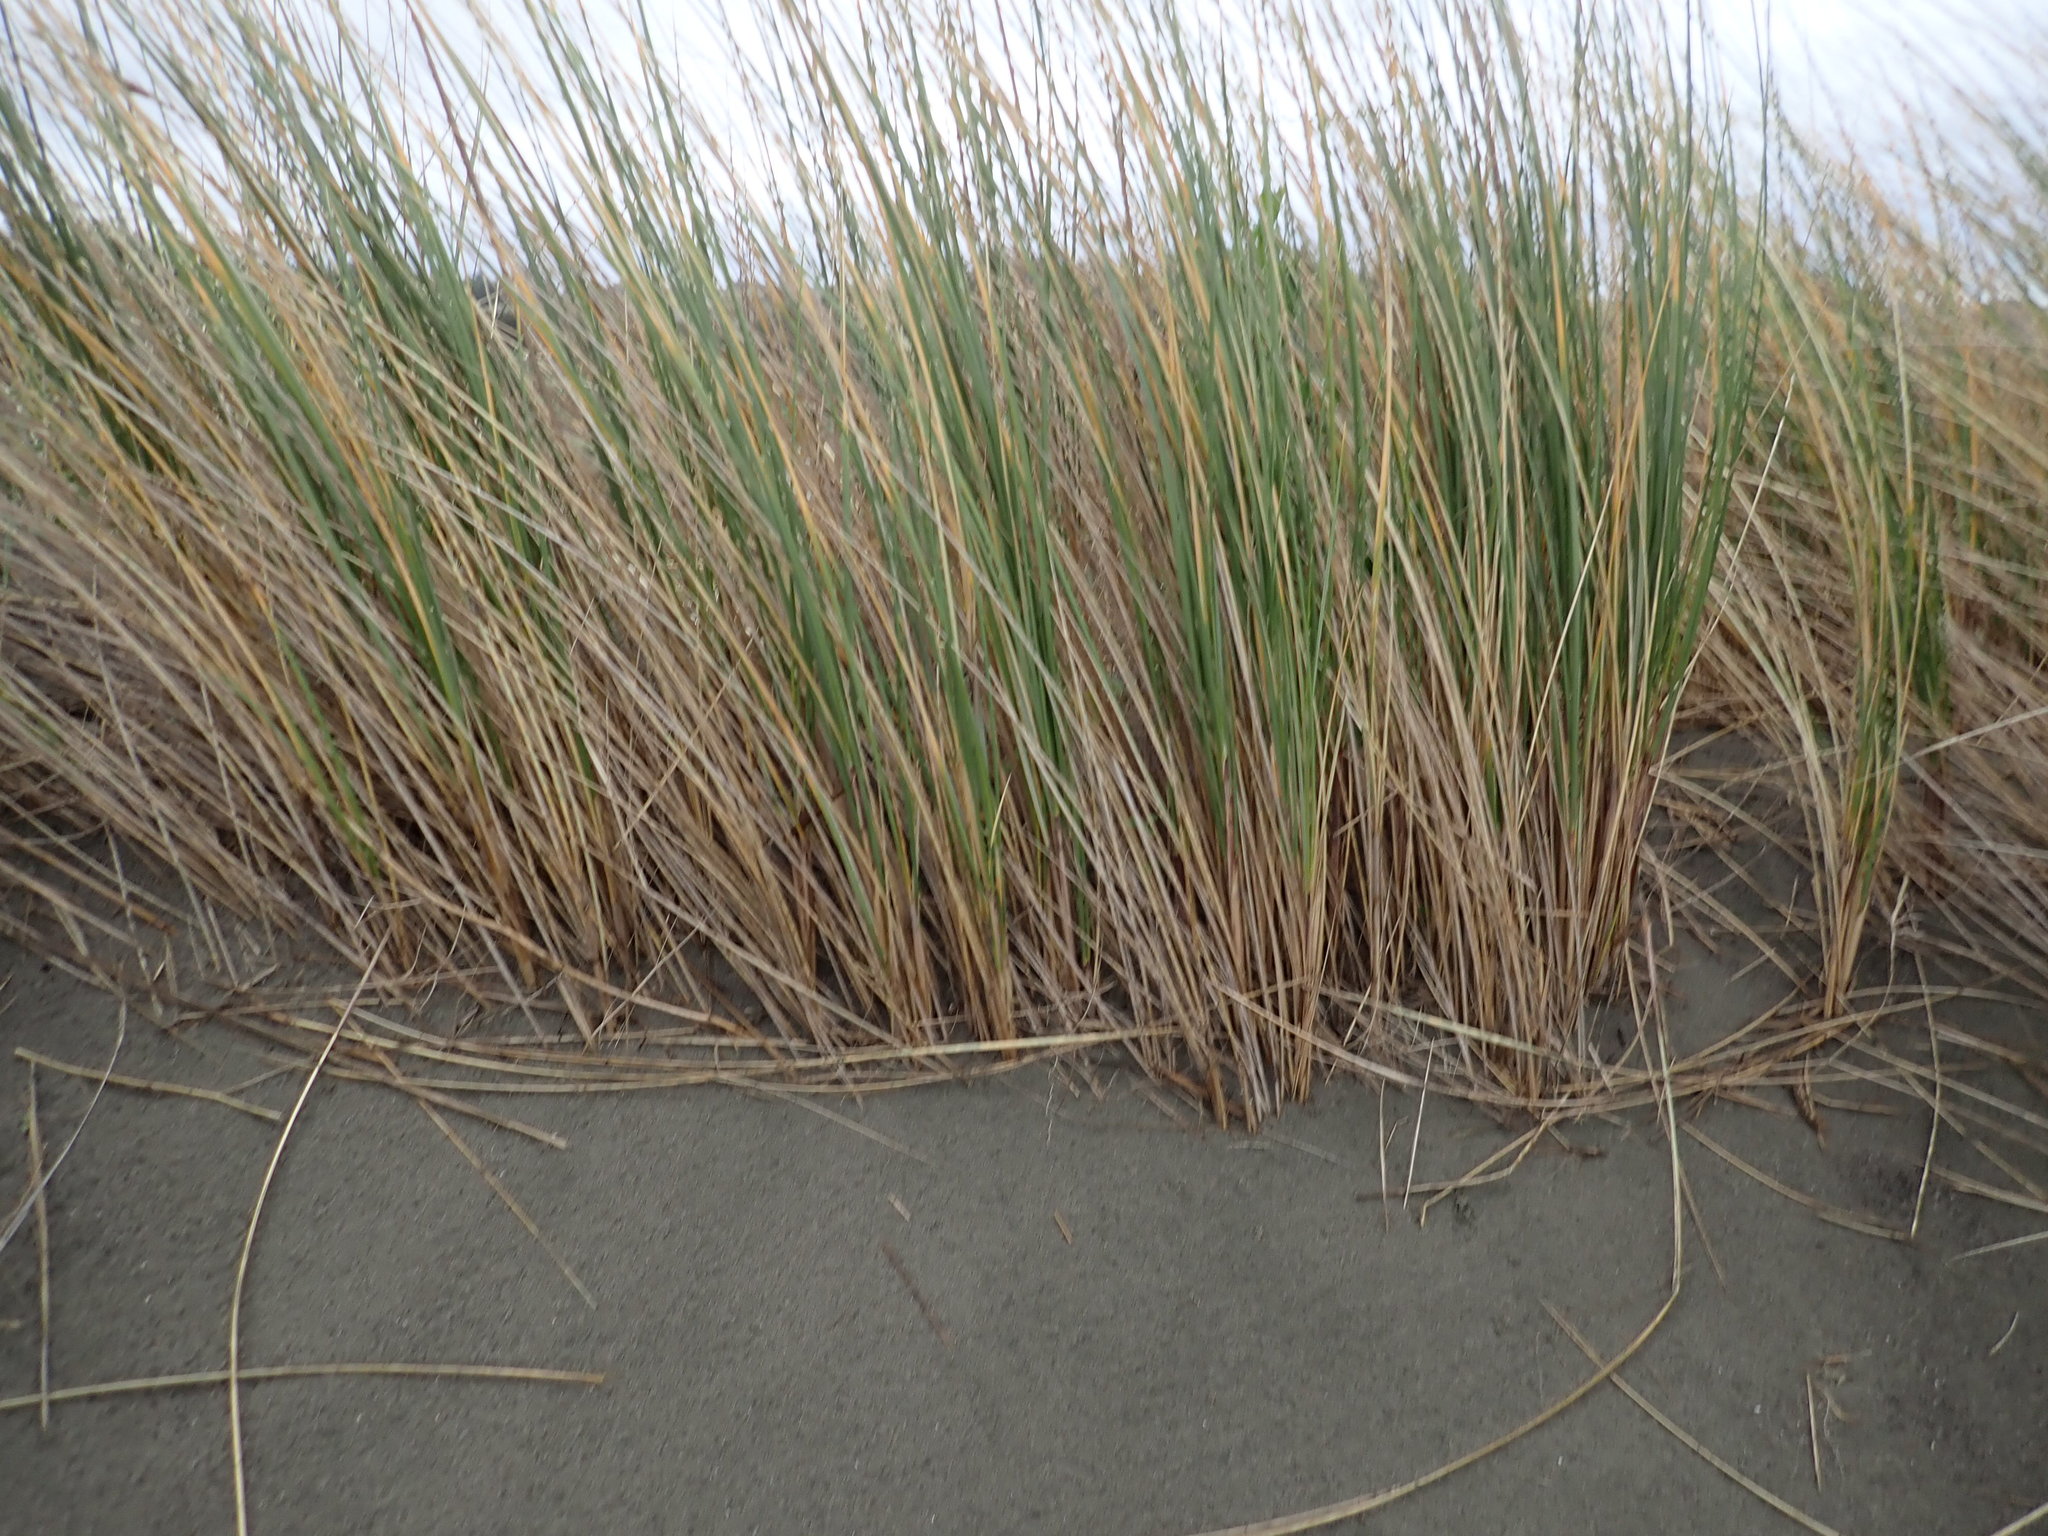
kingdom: Plantae
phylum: Tracheophyta
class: Liliopsida
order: Poales
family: Poaceae
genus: Calamagrostis
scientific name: Calamagrostis arenaria
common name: European beachgrass
